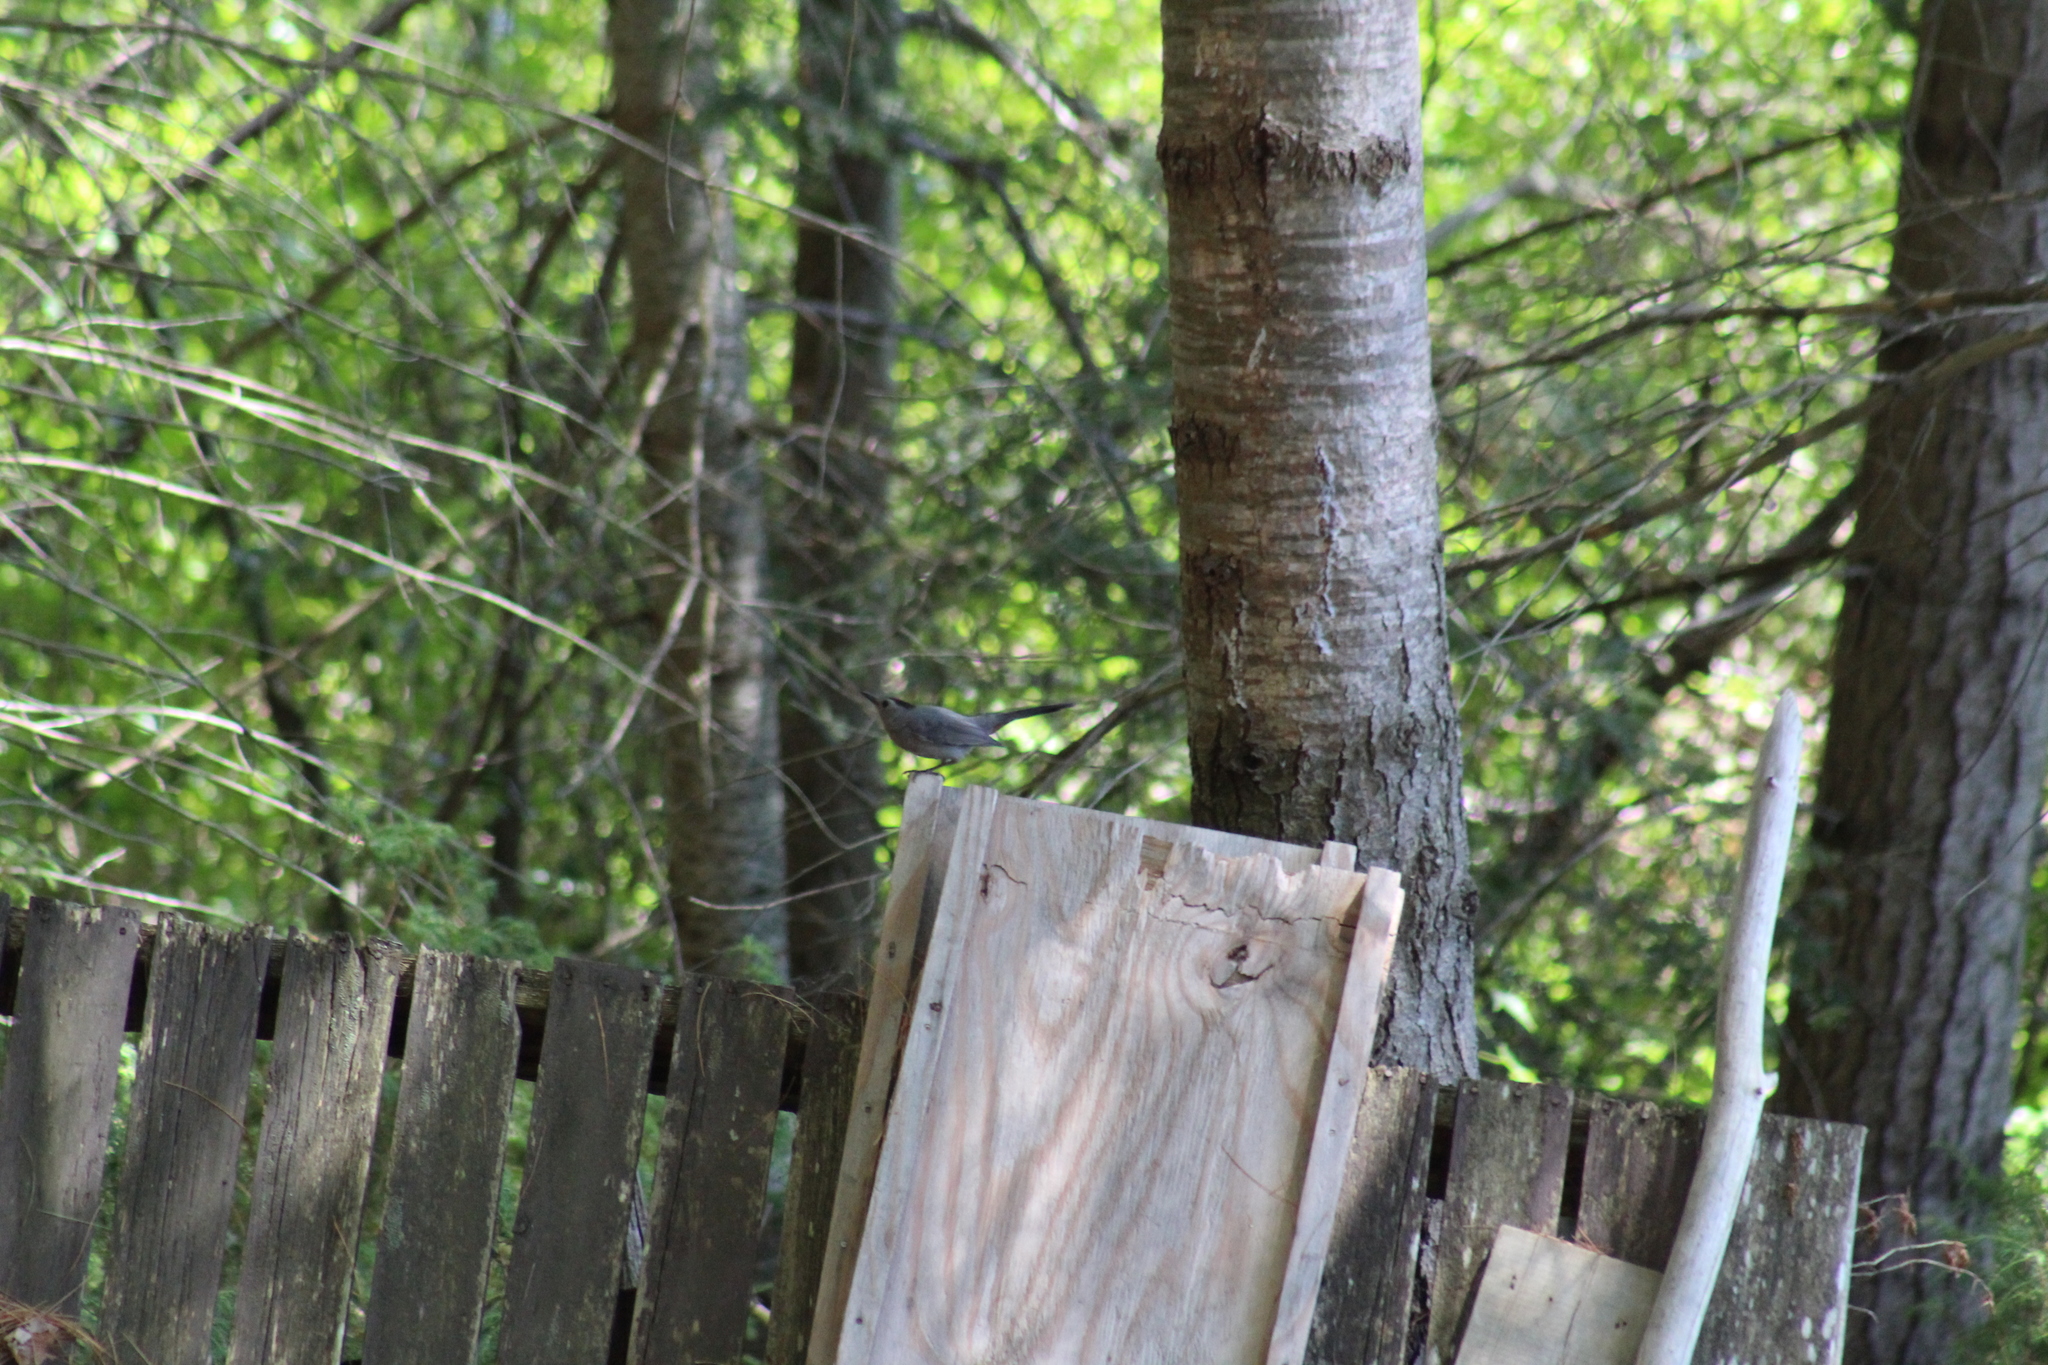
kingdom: Animalia
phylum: Chordata
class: Aves
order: Passeriformes
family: Mimidae
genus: Dumetella
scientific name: Dumetella carolinensis
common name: Gray catbird
